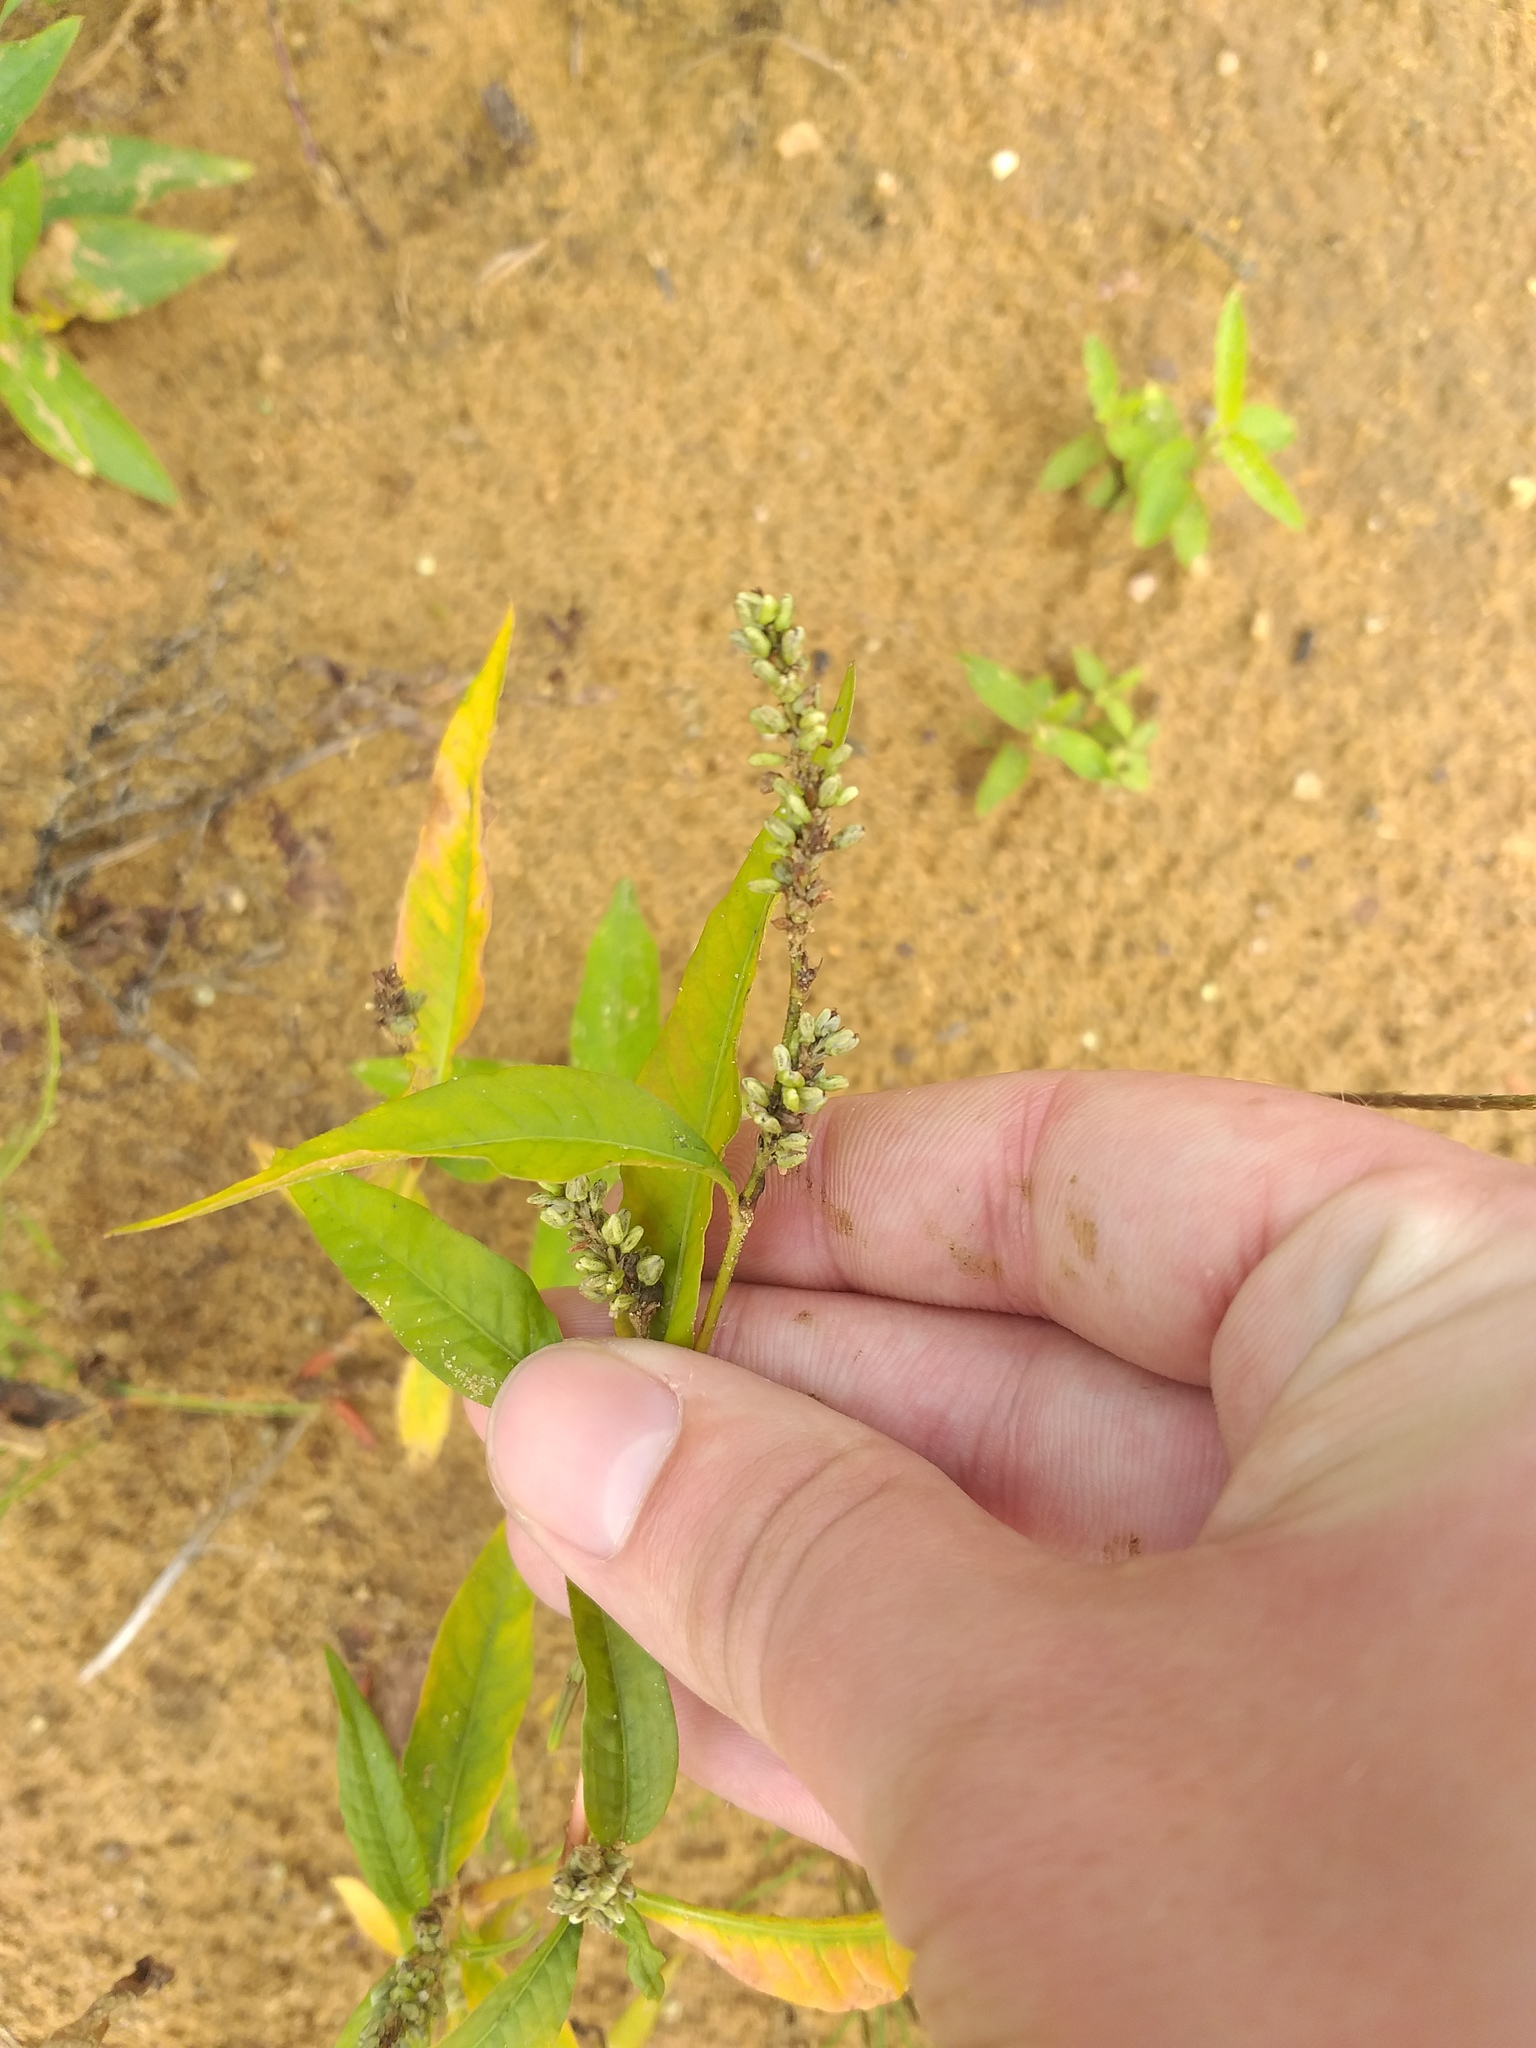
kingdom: Plantae
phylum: Tracheophyta
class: Magnoliopsida
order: Caryophyllales
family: Polygonaceae
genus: Persicaria
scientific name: Persicaria lapathifolia
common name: Curlytop knotweed
